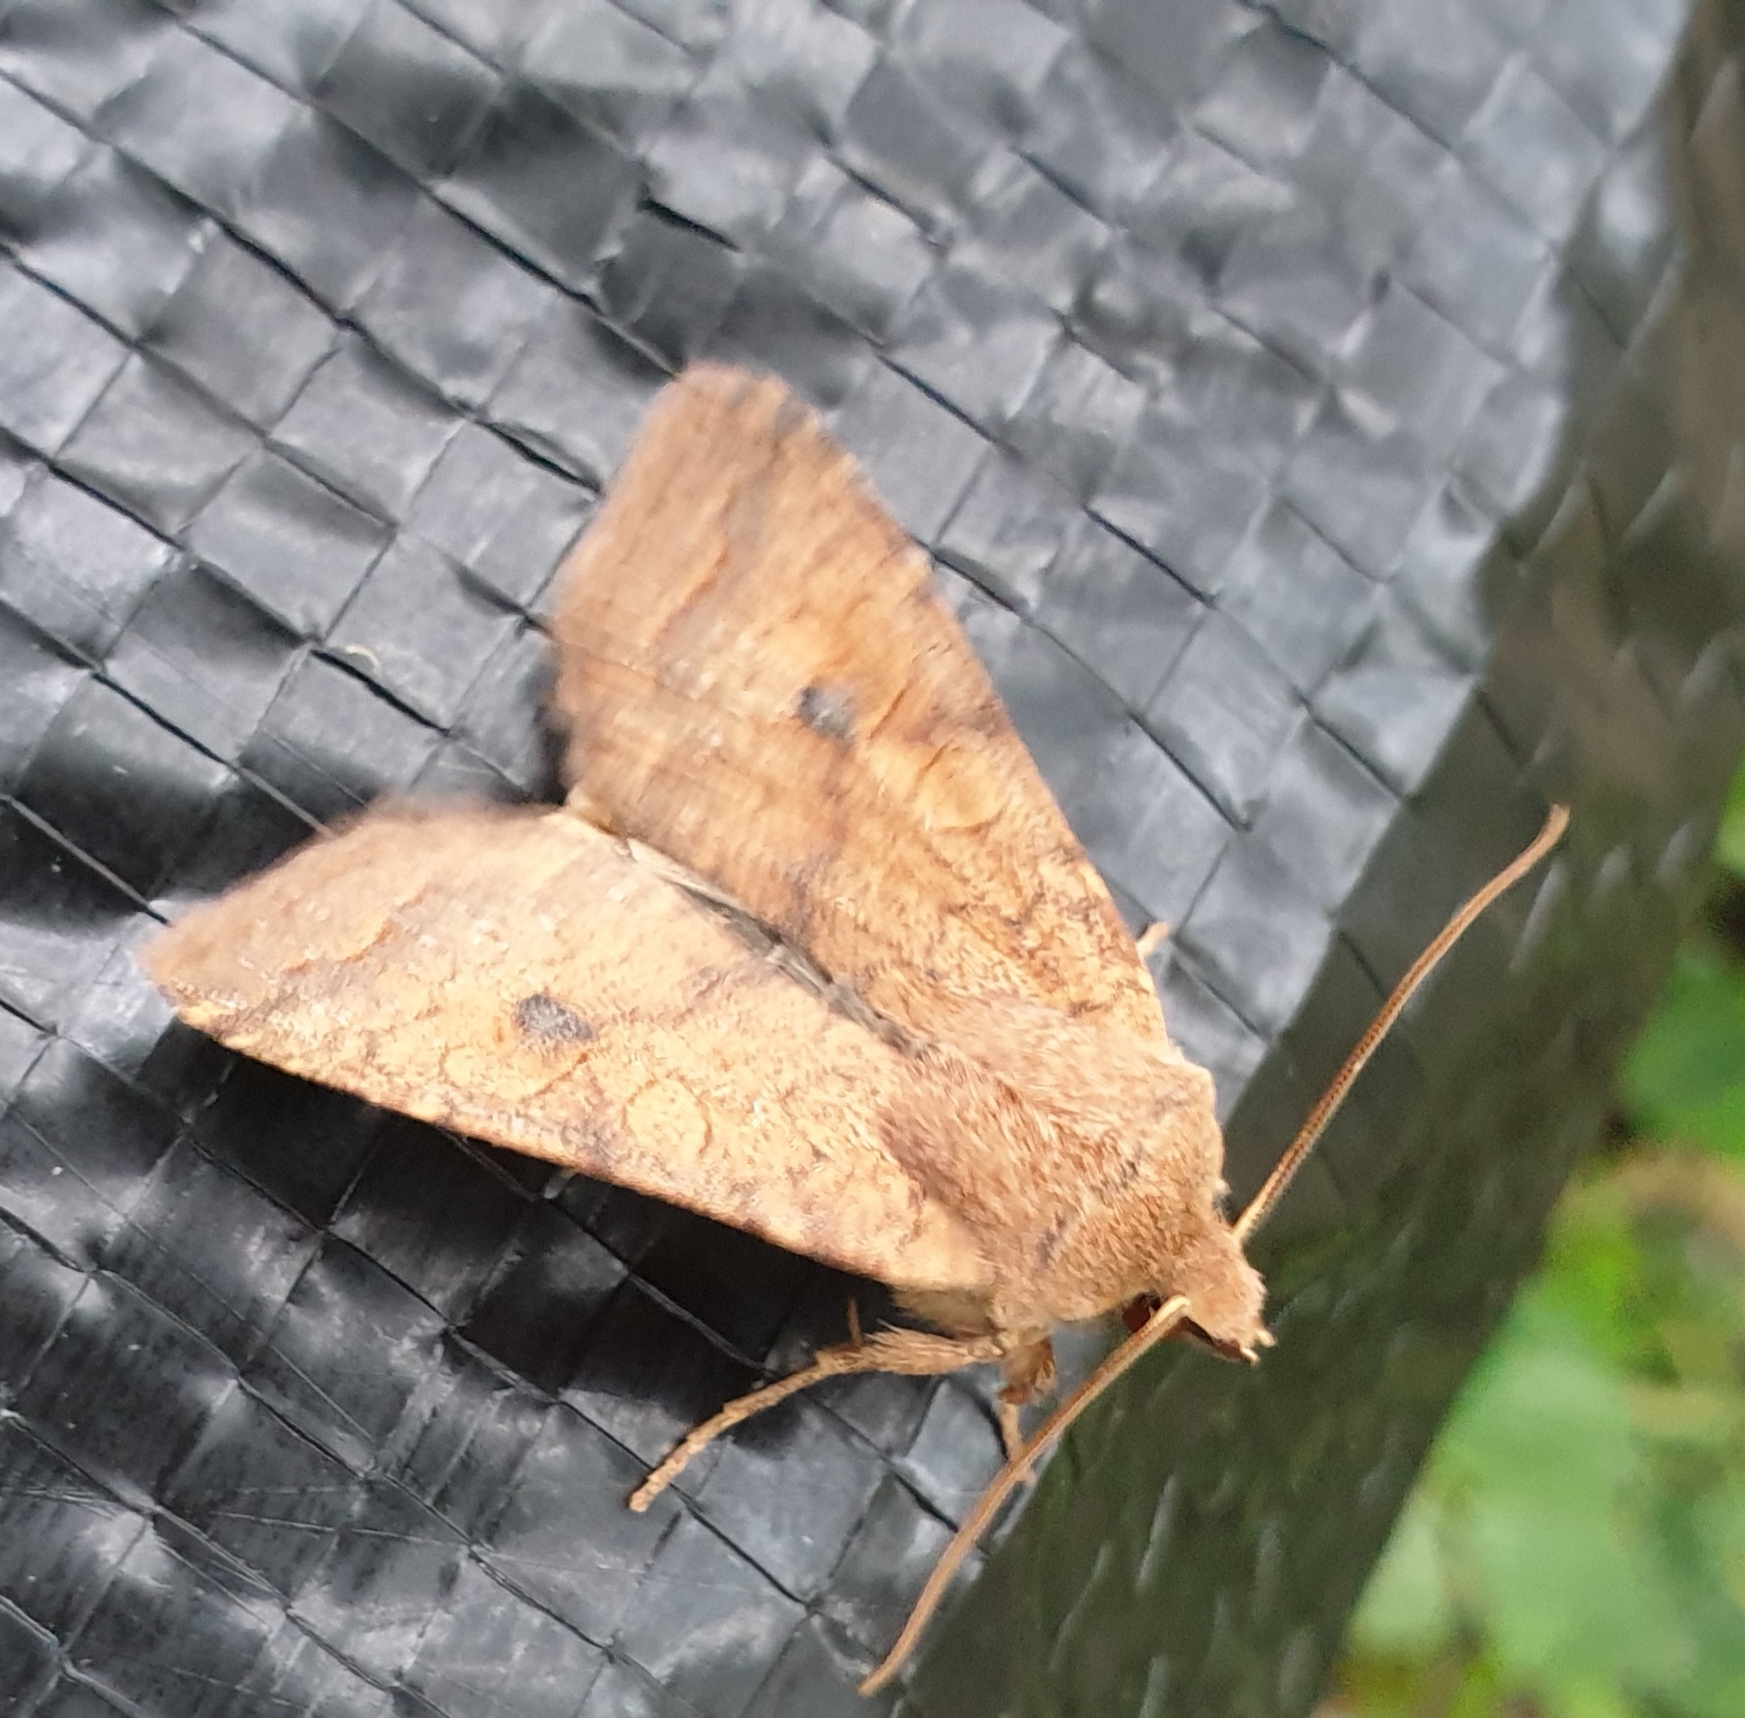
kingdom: Animalia
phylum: Arthropoda
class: Insecta
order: Lepidoptera
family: Noctuidae
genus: Sunira
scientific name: Sunira circellaris
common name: Brick
